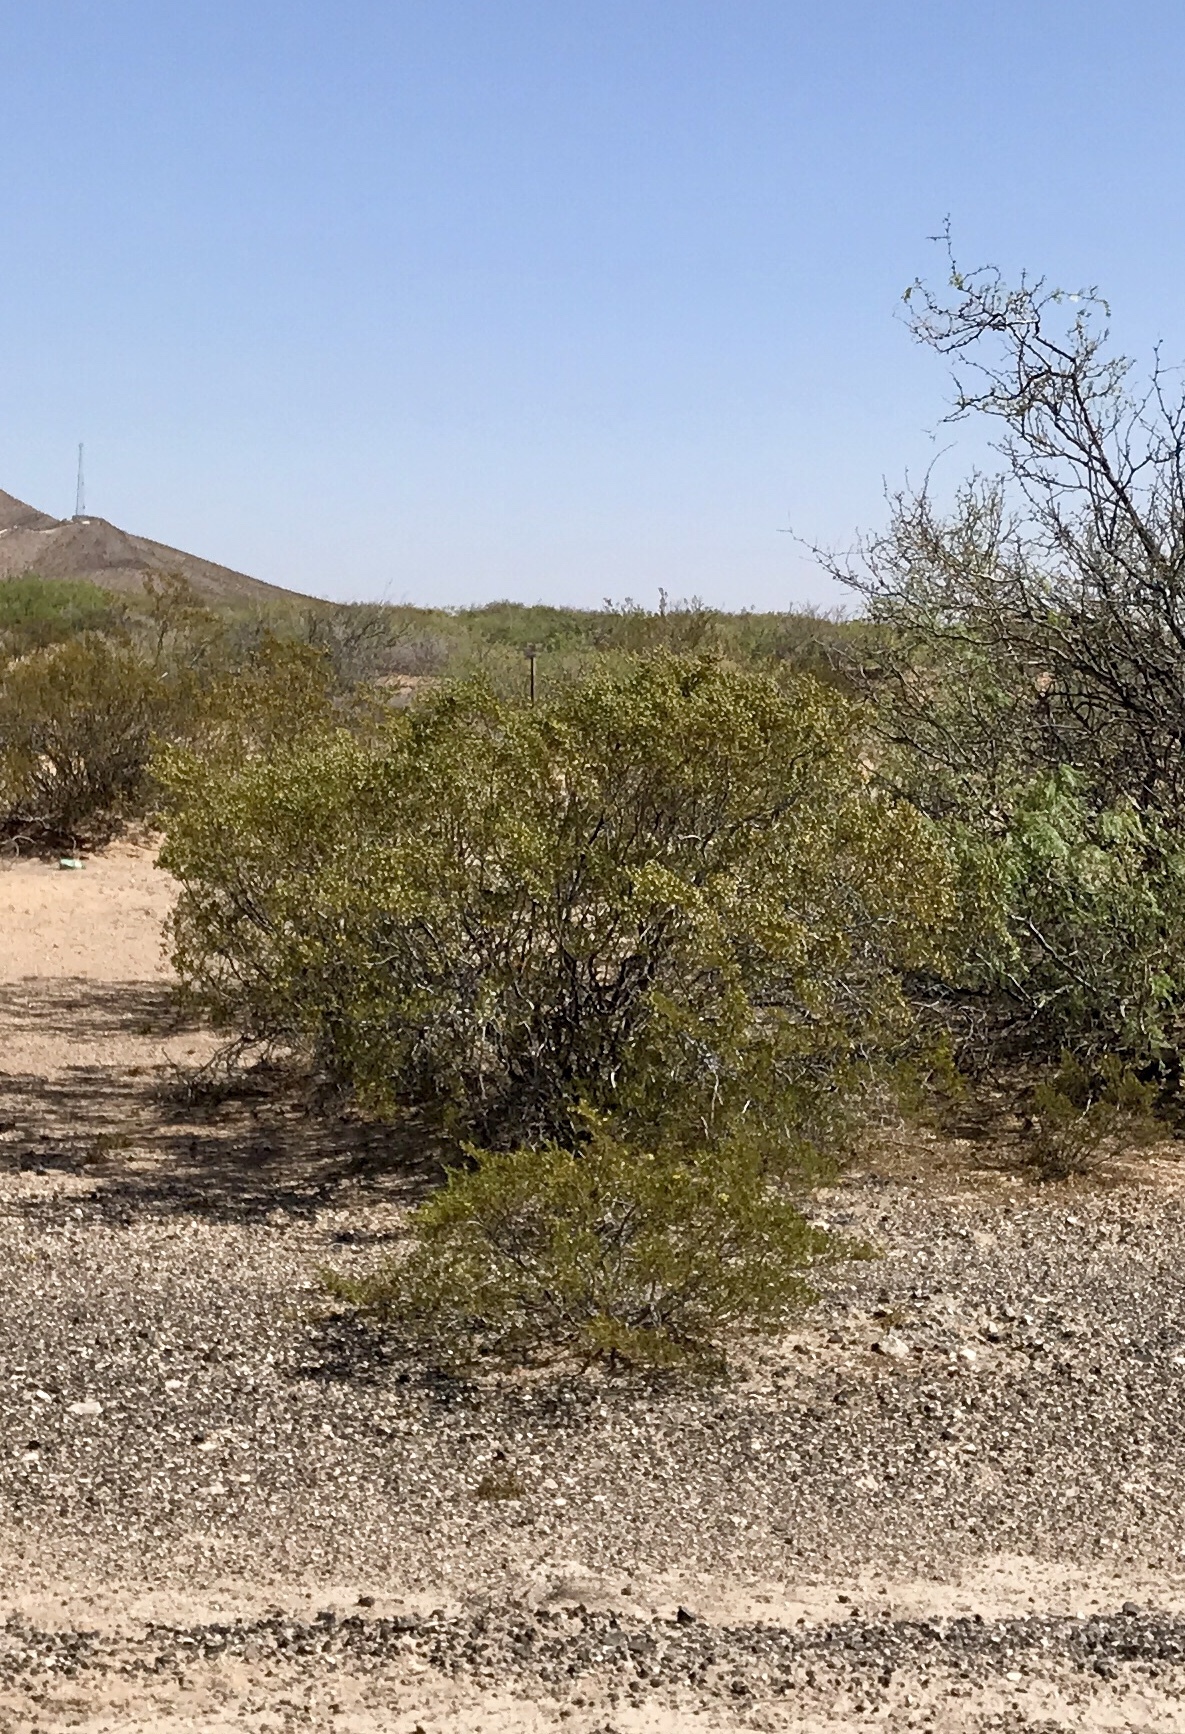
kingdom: Plantae
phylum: Tracheophyta
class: Magnoliopsida
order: Zygophyllales
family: Zygophyllaceae
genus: Larrea
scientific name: Larrea tridentata
